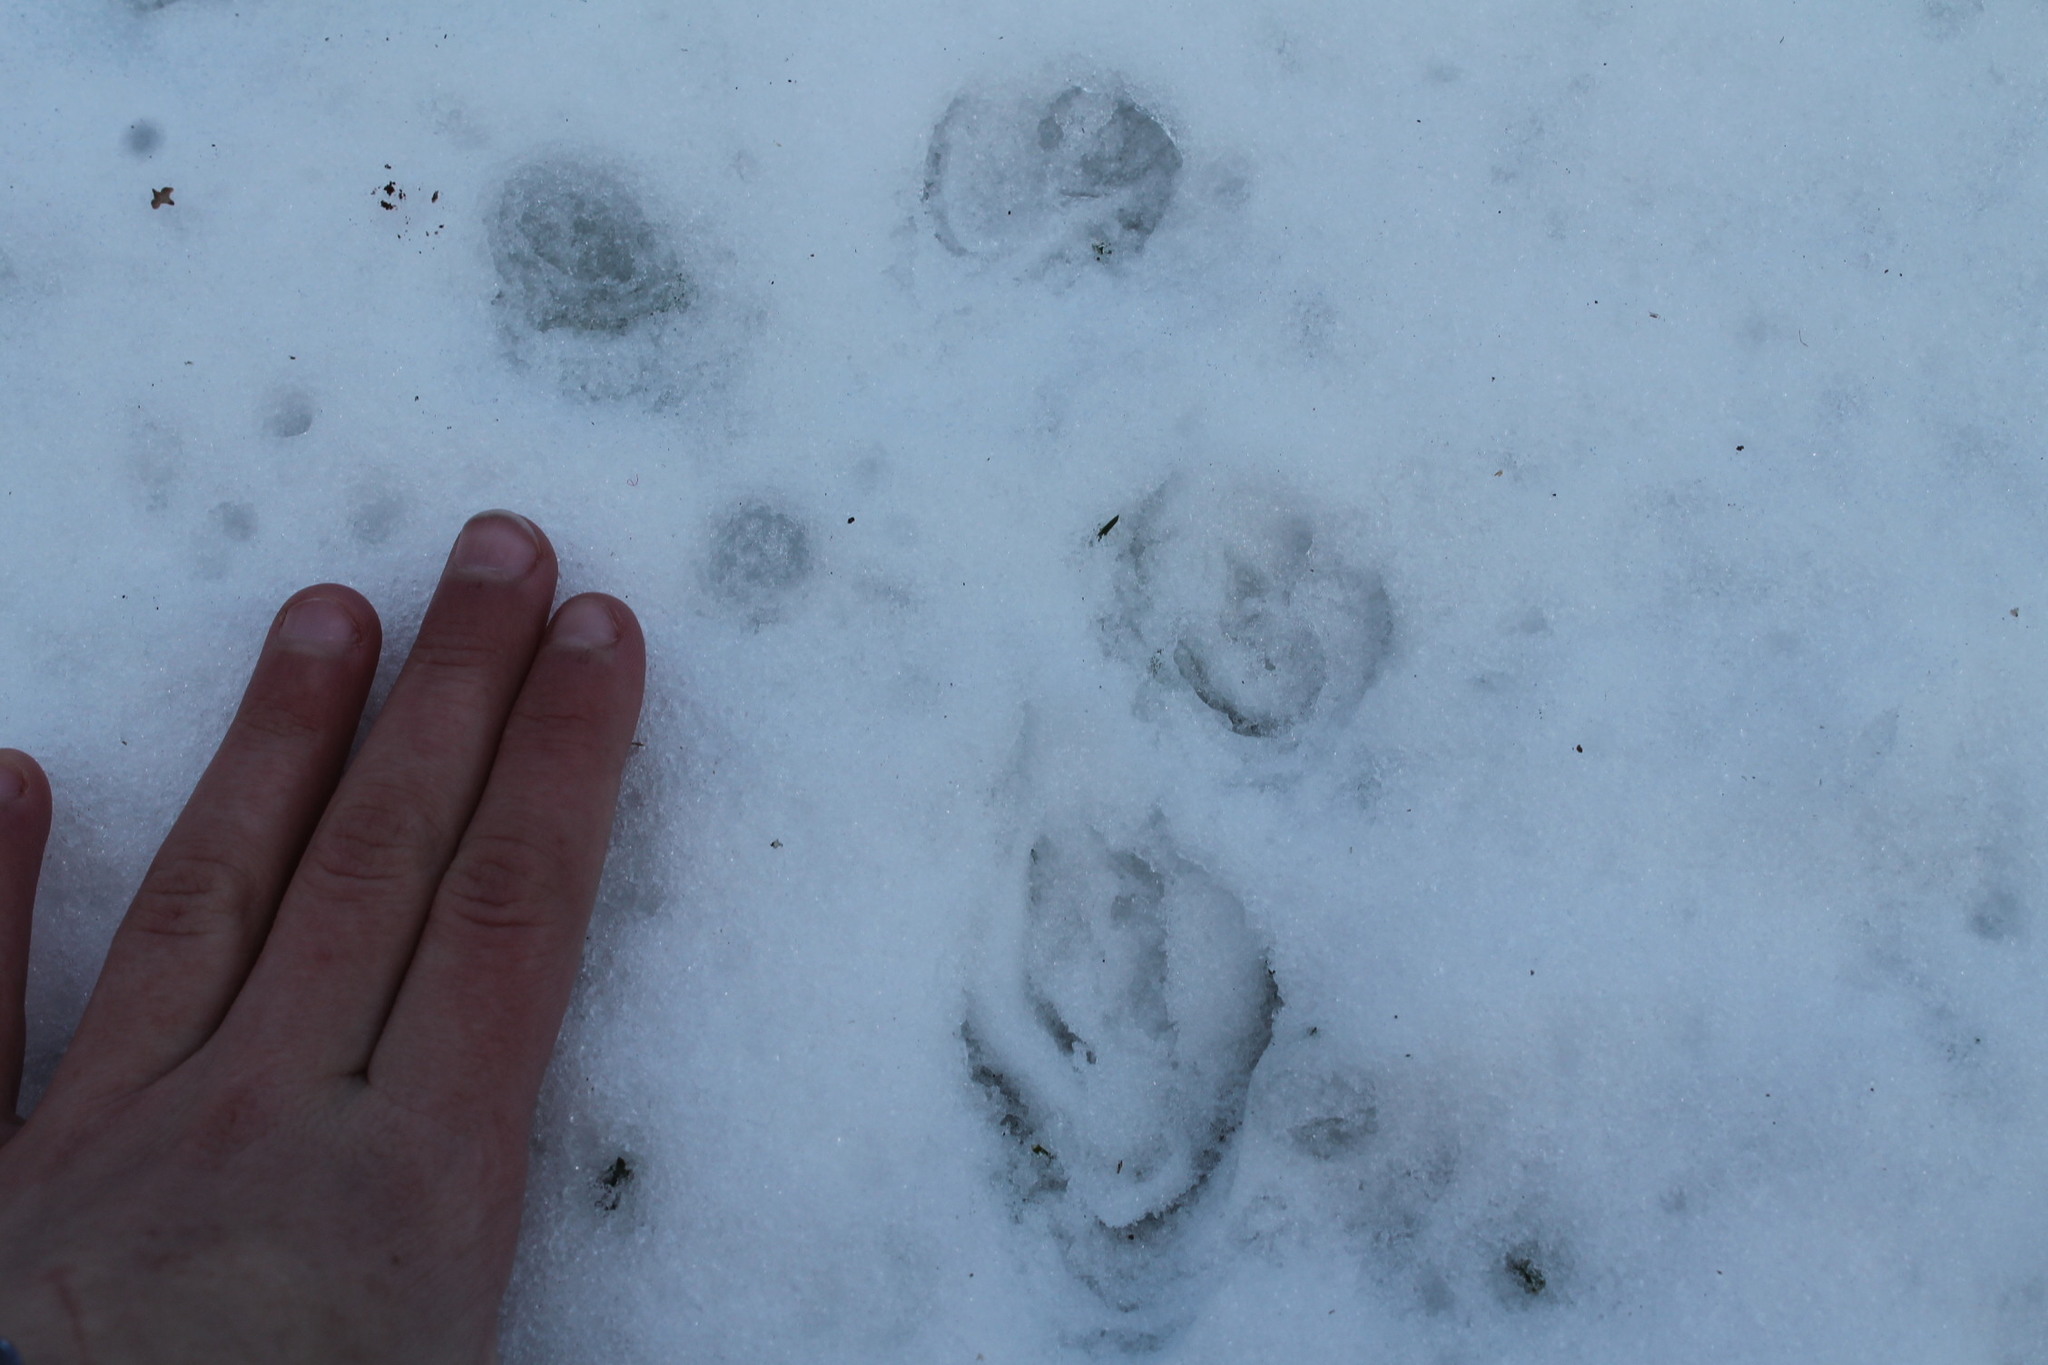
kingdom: Animalia
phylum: Chordata
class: Mammalia
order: Didelphimorphia
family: Didelphidae
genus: Didelphis
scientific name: Didelphis virginiana
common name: Virginia opossum
